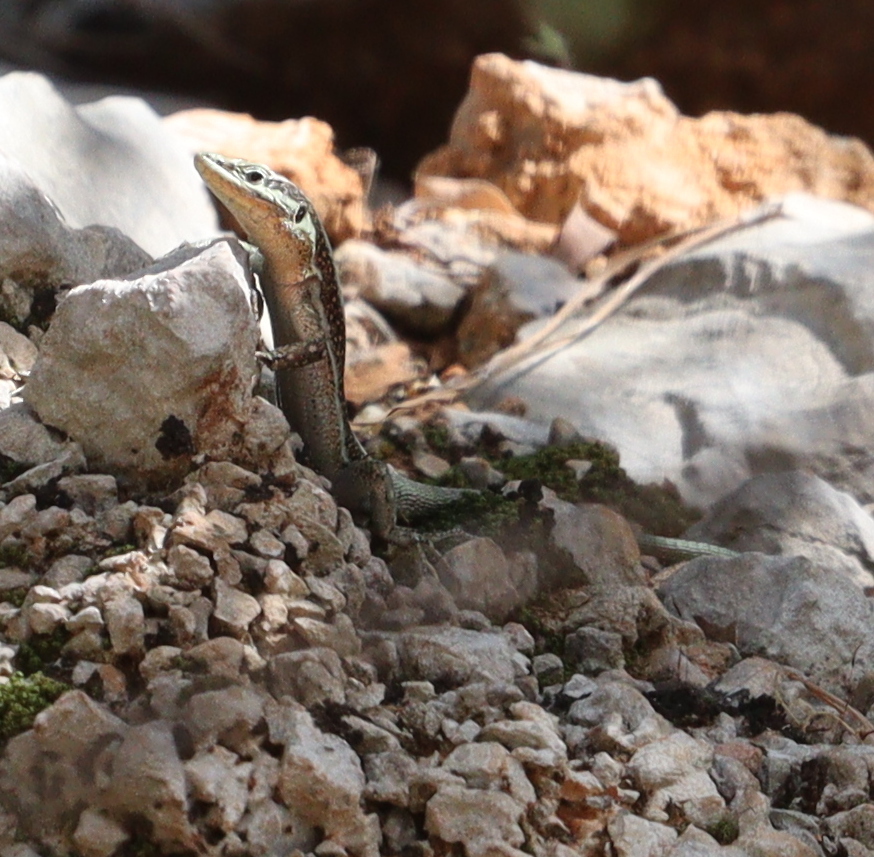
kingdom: Animalia
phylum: Chordata
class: Squamata
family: Lacertidae
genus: Anatololacerta
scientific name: Anatololacerta finikensis
